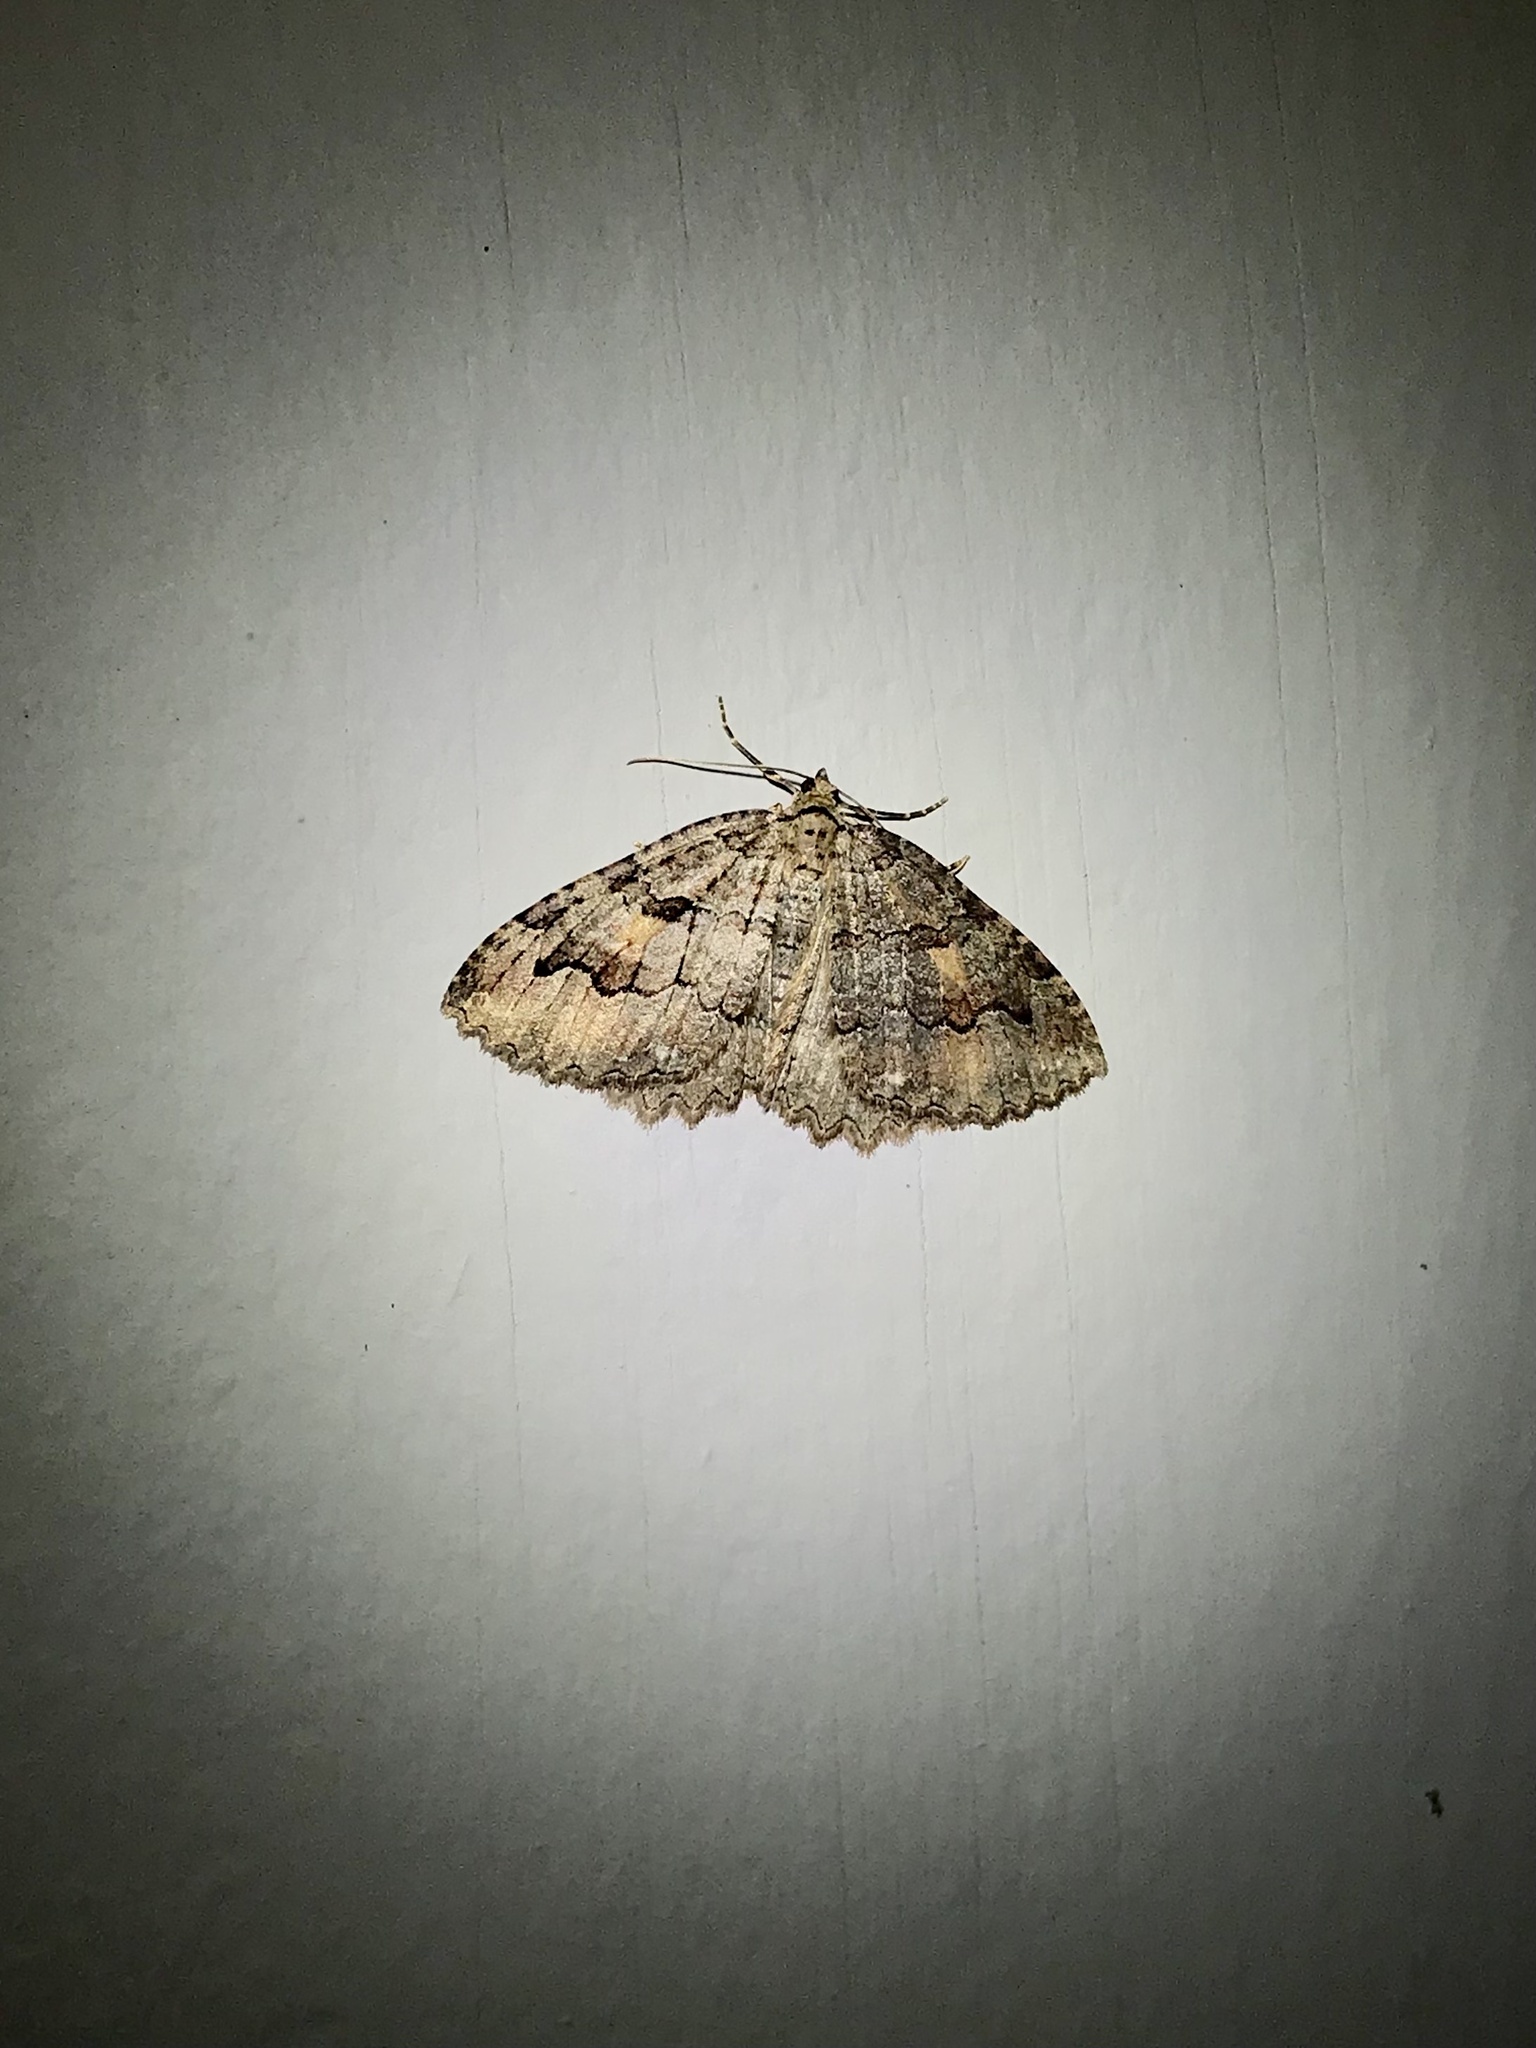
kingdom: Animalia
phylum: Arthropoda
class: Insecta
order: Lepidoptera
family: Geometridae
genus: Triphosa
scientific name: Triphosa haesitata
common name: Tissue moth
